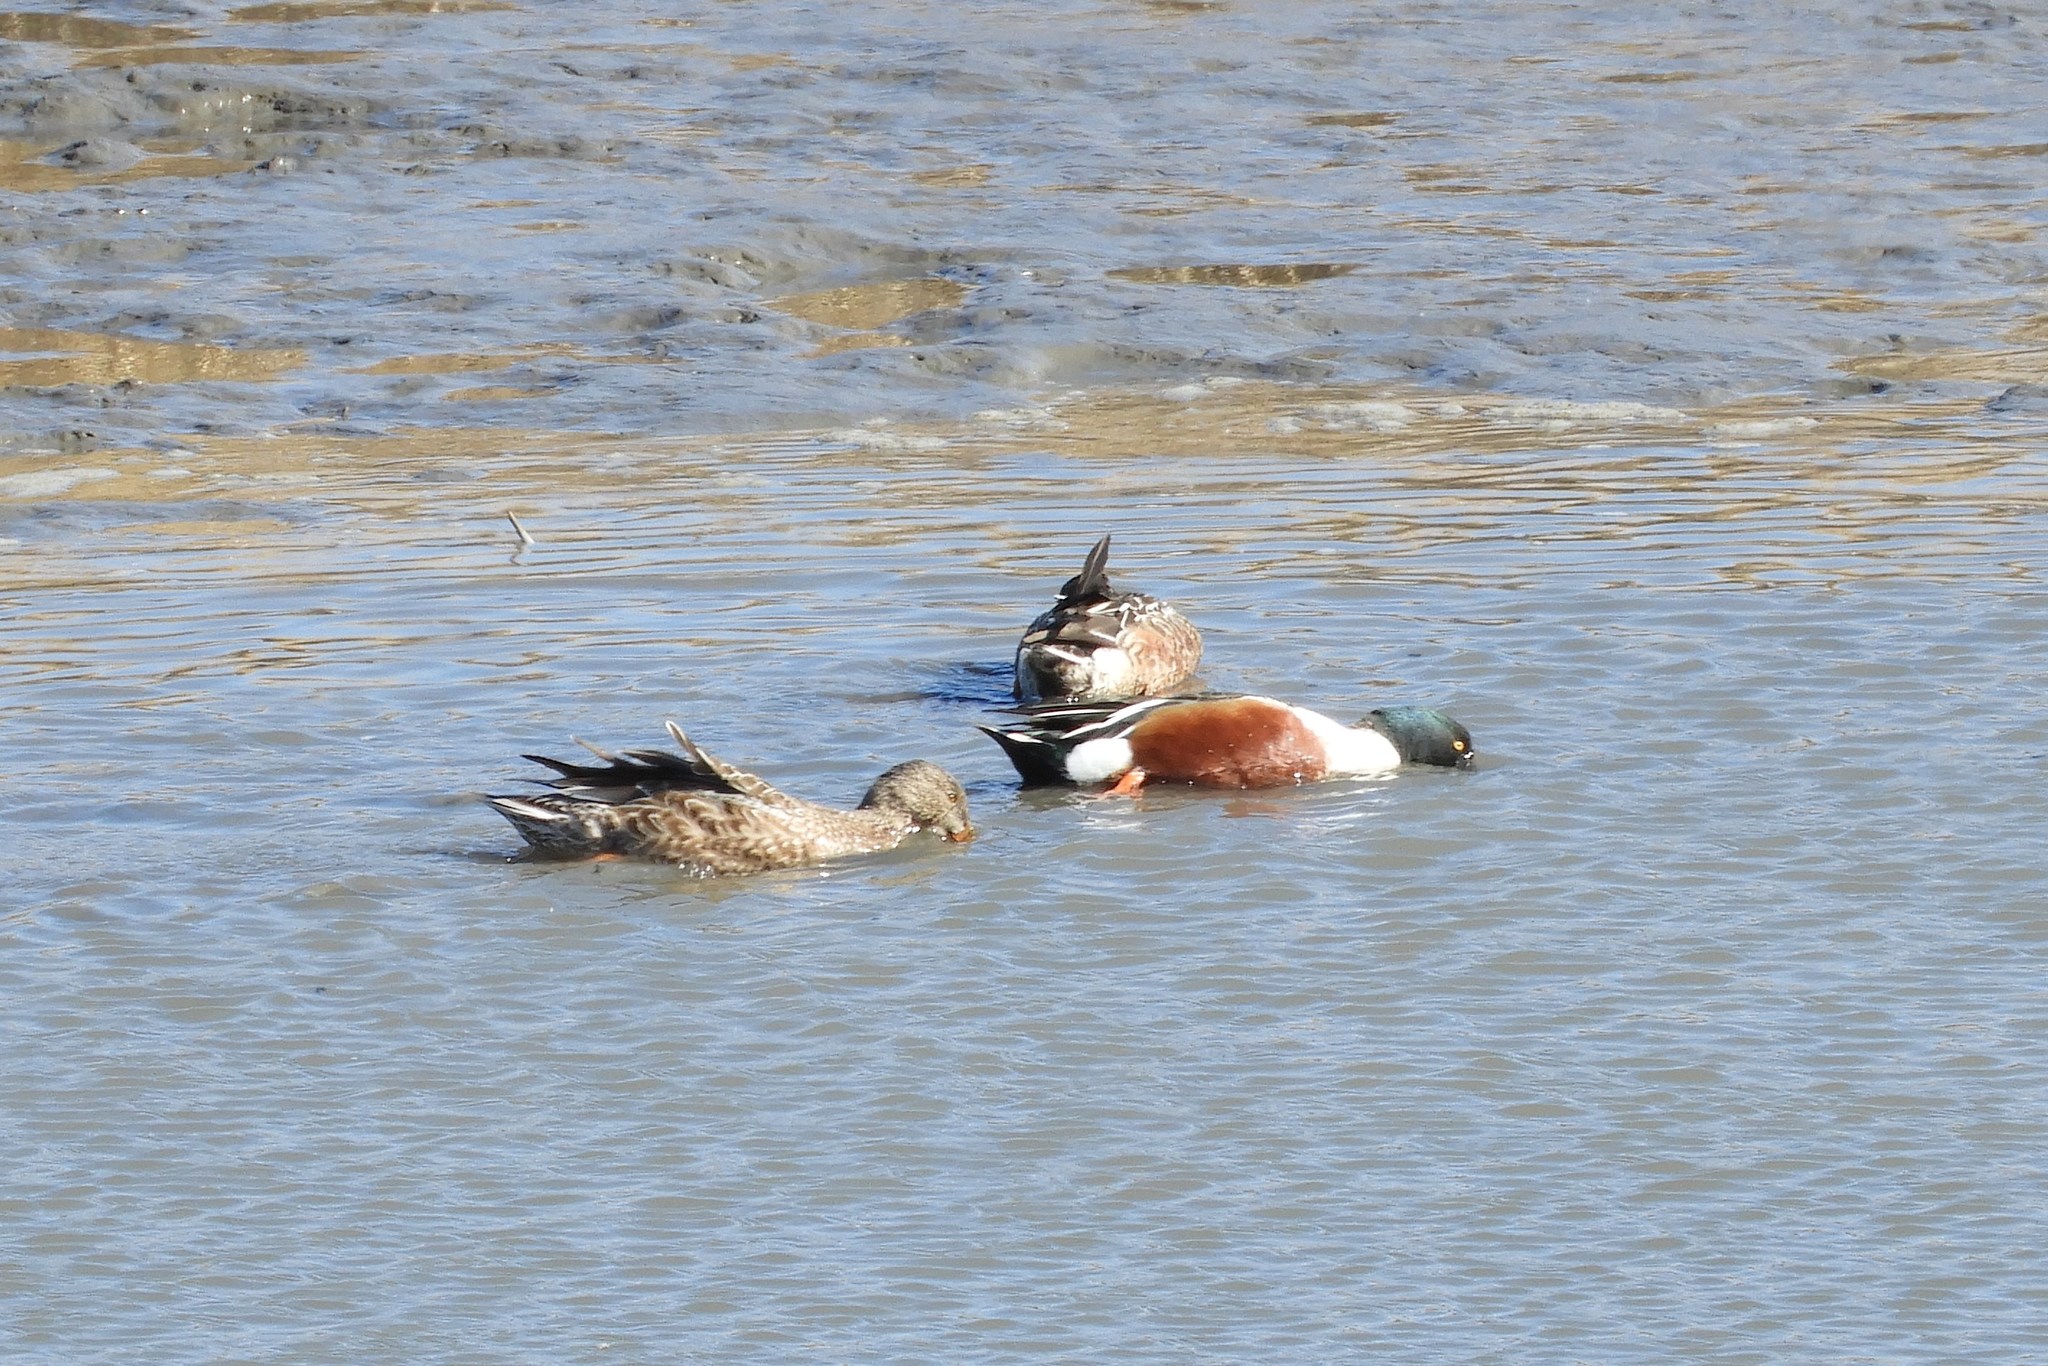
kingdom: Animalia
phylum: Chordata
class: Aves
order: Anseriformes
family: Anatidae
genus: Spatula
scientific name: Spatula clypeata
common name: Northern shoveler
